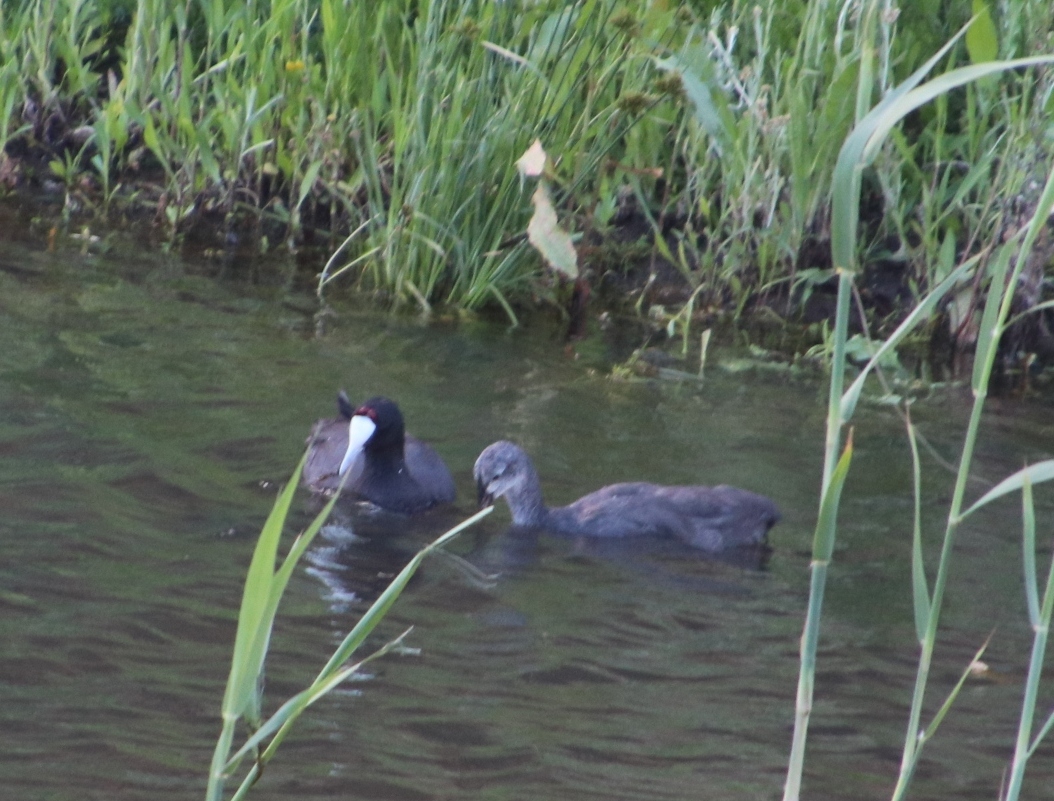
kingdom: Animalia
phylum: Chordata
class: Aves
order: Gruiformes
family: Rallidae
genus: Fulica
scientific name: Fulica cristata
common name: Red-knobbed coot
